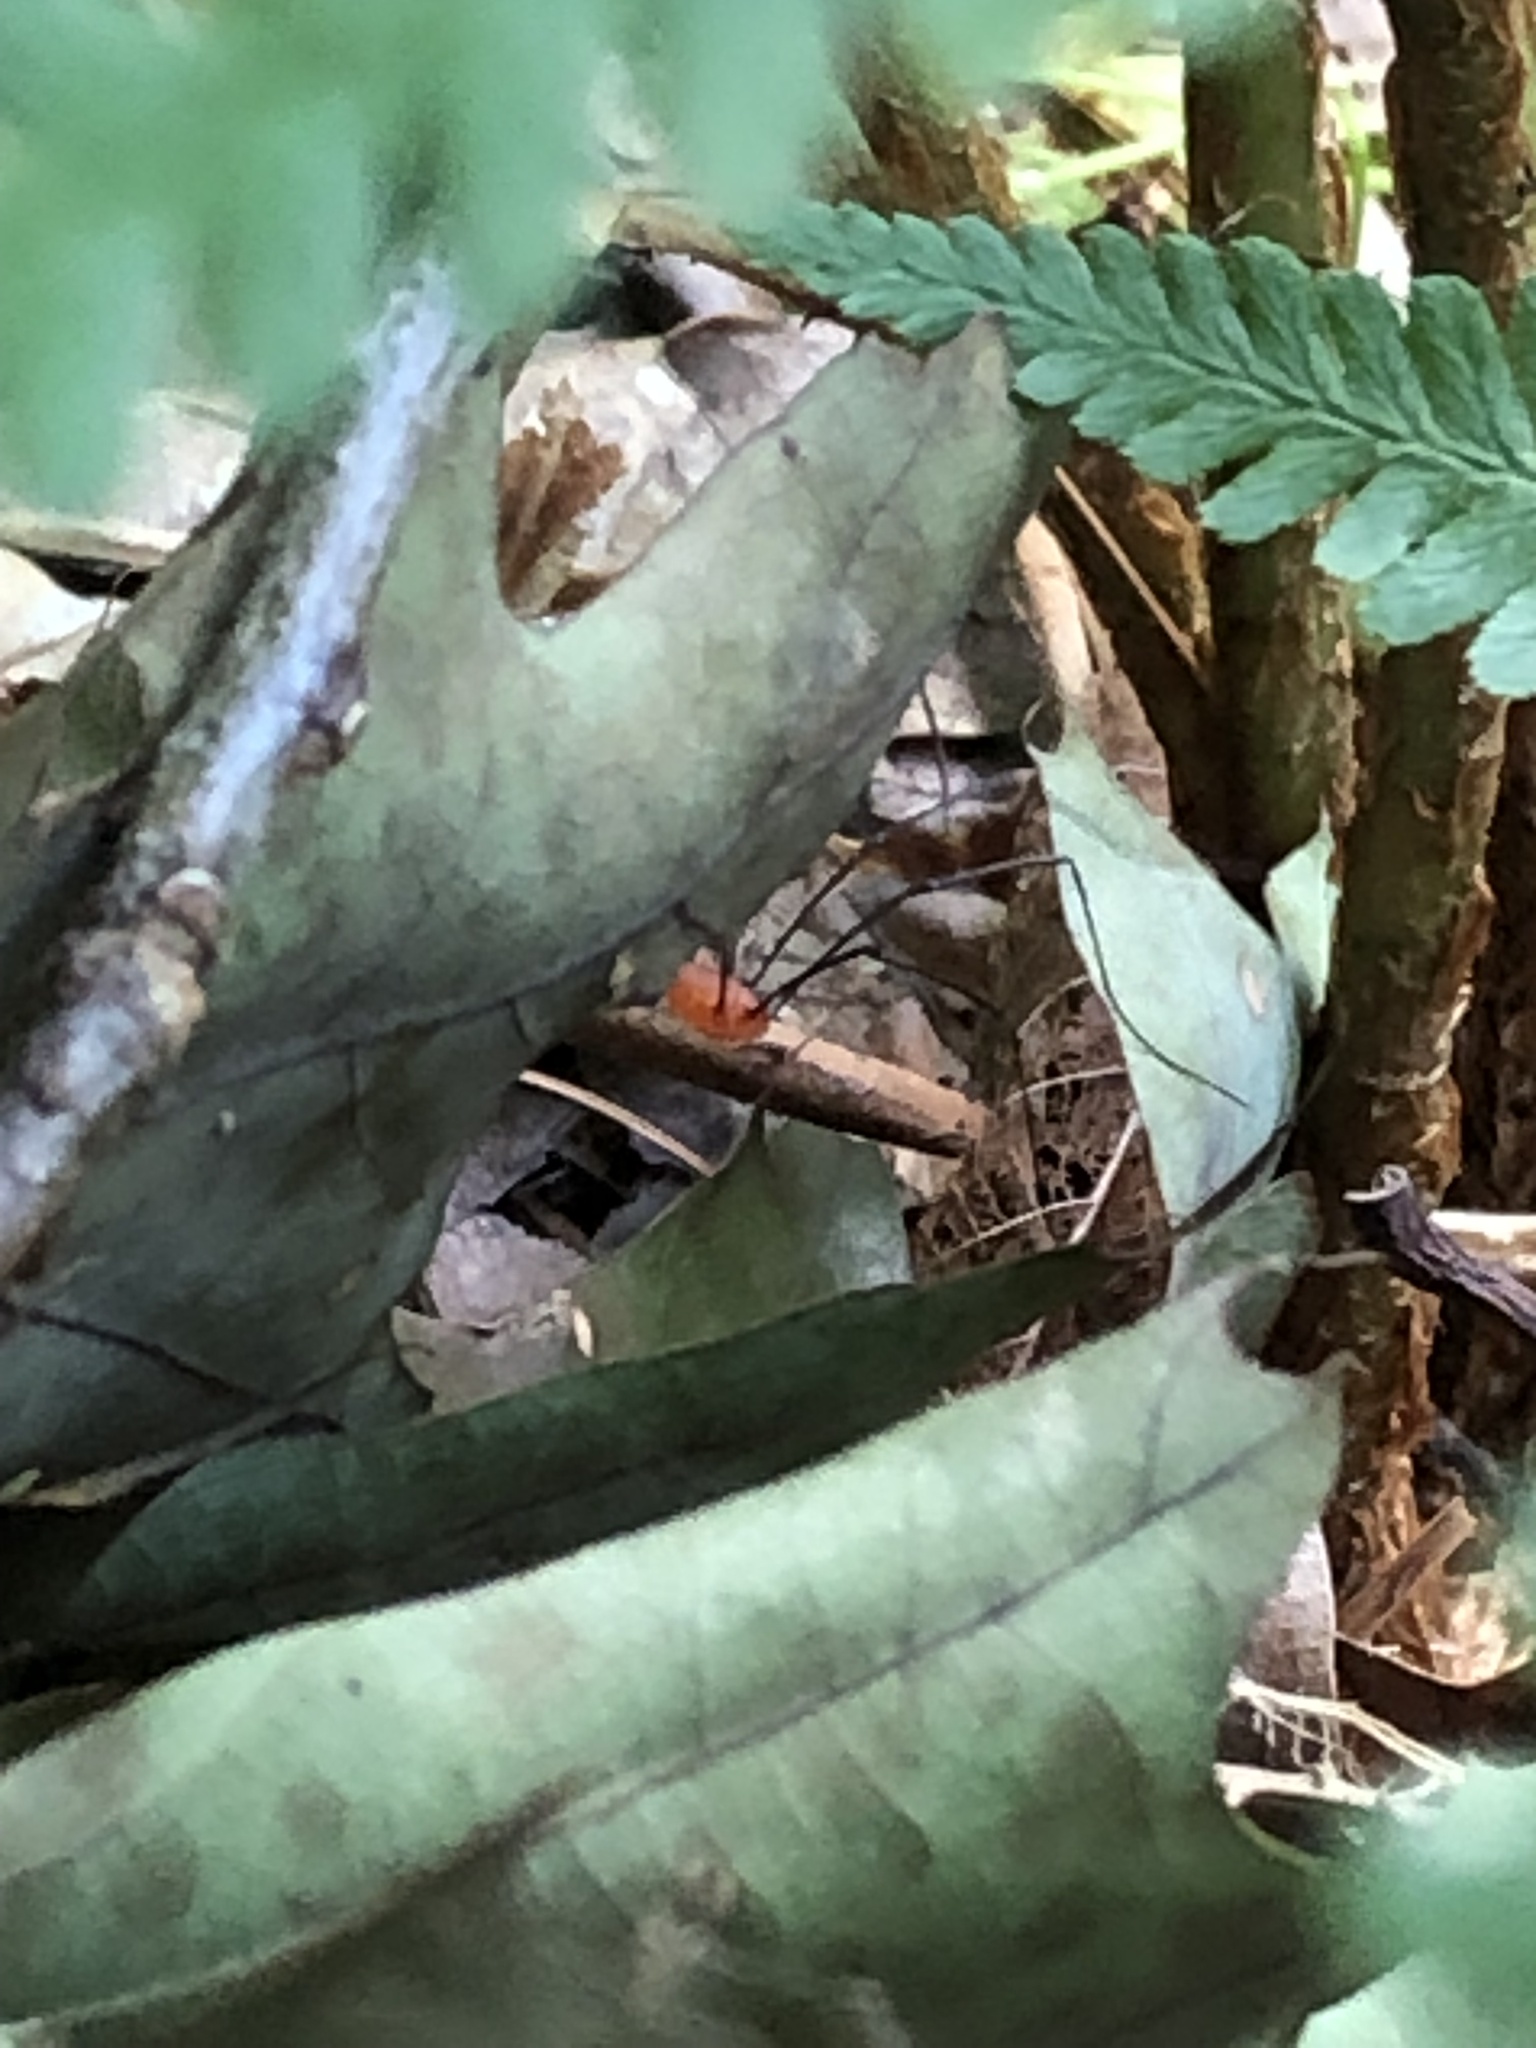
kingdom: Animalia
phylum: Arthropoda
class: Arachnida
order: Opiliones
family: Sclerosomatidae
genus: Leiobunum
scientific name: Leiobunum politum
